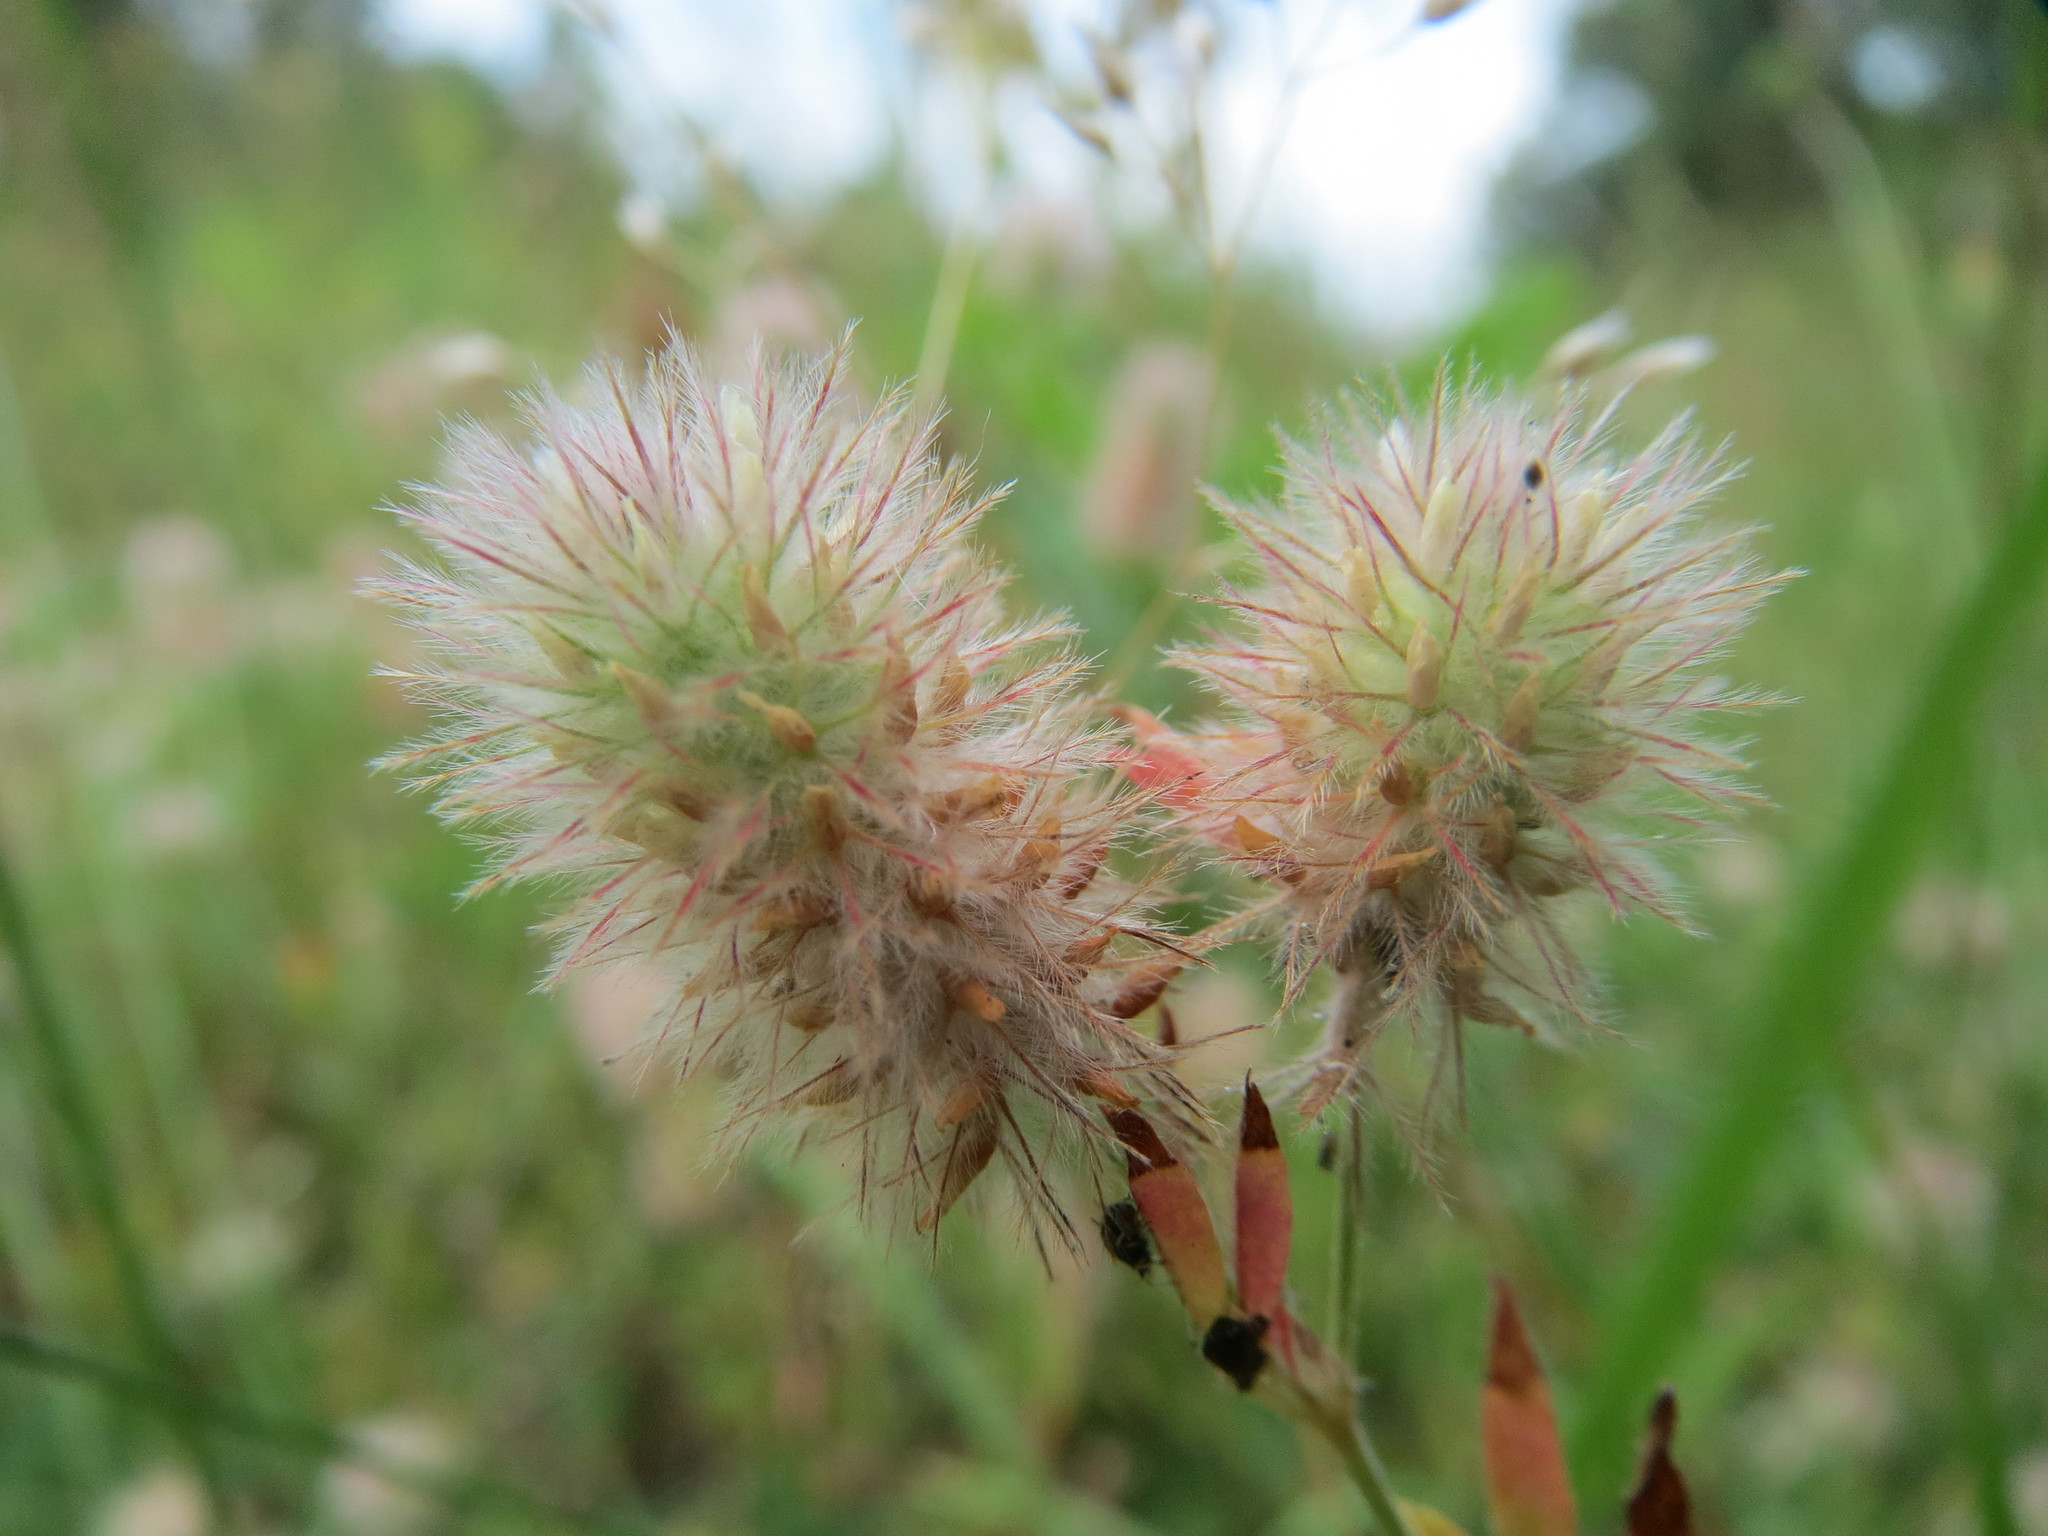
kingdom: Plantae
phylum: Tracheophyta
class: Magnoliopsida
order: Fabales
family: Fabaceae
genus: Trifolium
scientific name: Trifolium arvense
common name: Hare's-foot clover
